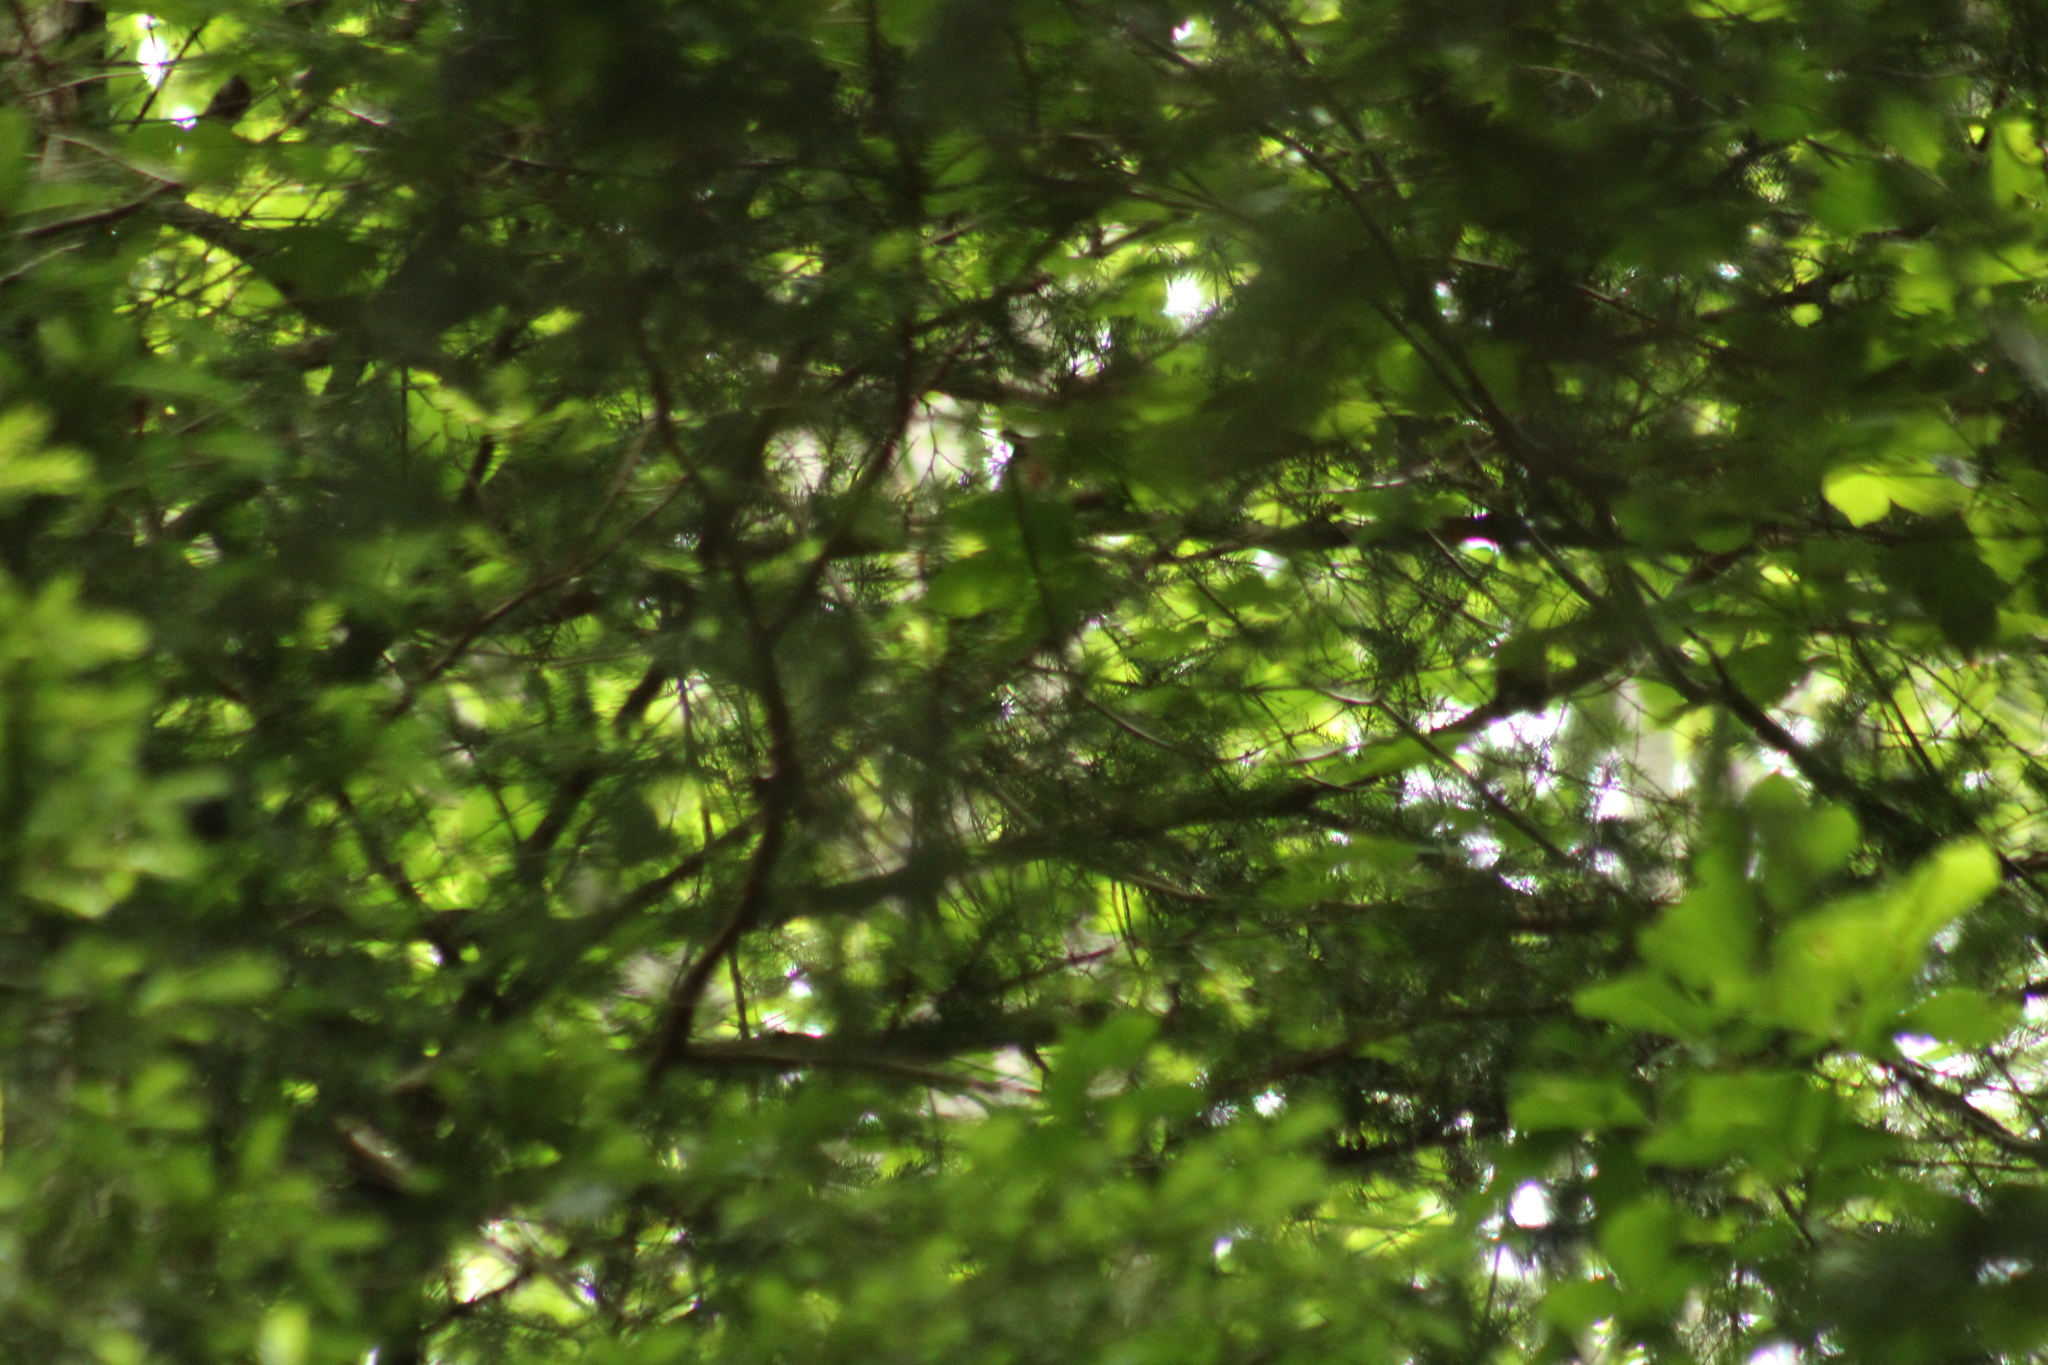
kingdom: Animalia
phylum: Chordata
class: Mammalia
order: Rodentia
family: Sciuridae
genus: Sciurus
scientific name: Sciurus vulgaris
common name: Eurasian red squirrel
